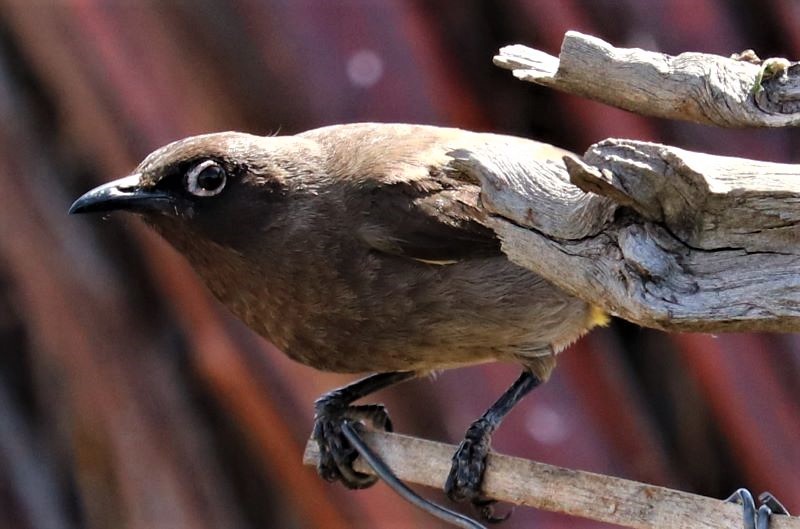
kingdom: Animalia
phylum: Chordata
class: Aves
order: Passeriformes
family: Pycnonotidae
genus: Pycnonotus
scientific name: Pycnonotus capensis
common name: Cape bulbul
